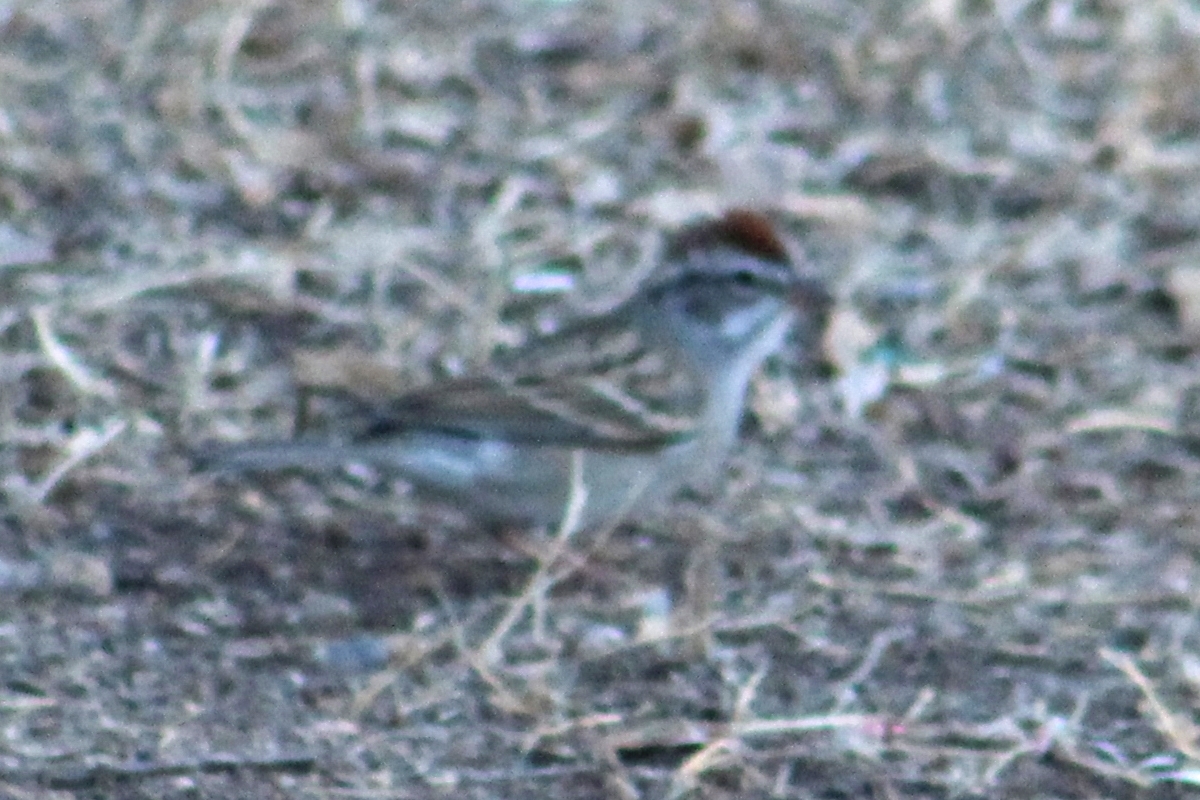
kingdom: Animalia
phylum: Chordata
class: Aves
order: Passeriformes
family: Passerellidae
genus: Spizella
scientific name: Spizella passerina
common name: Chipping sparrow
